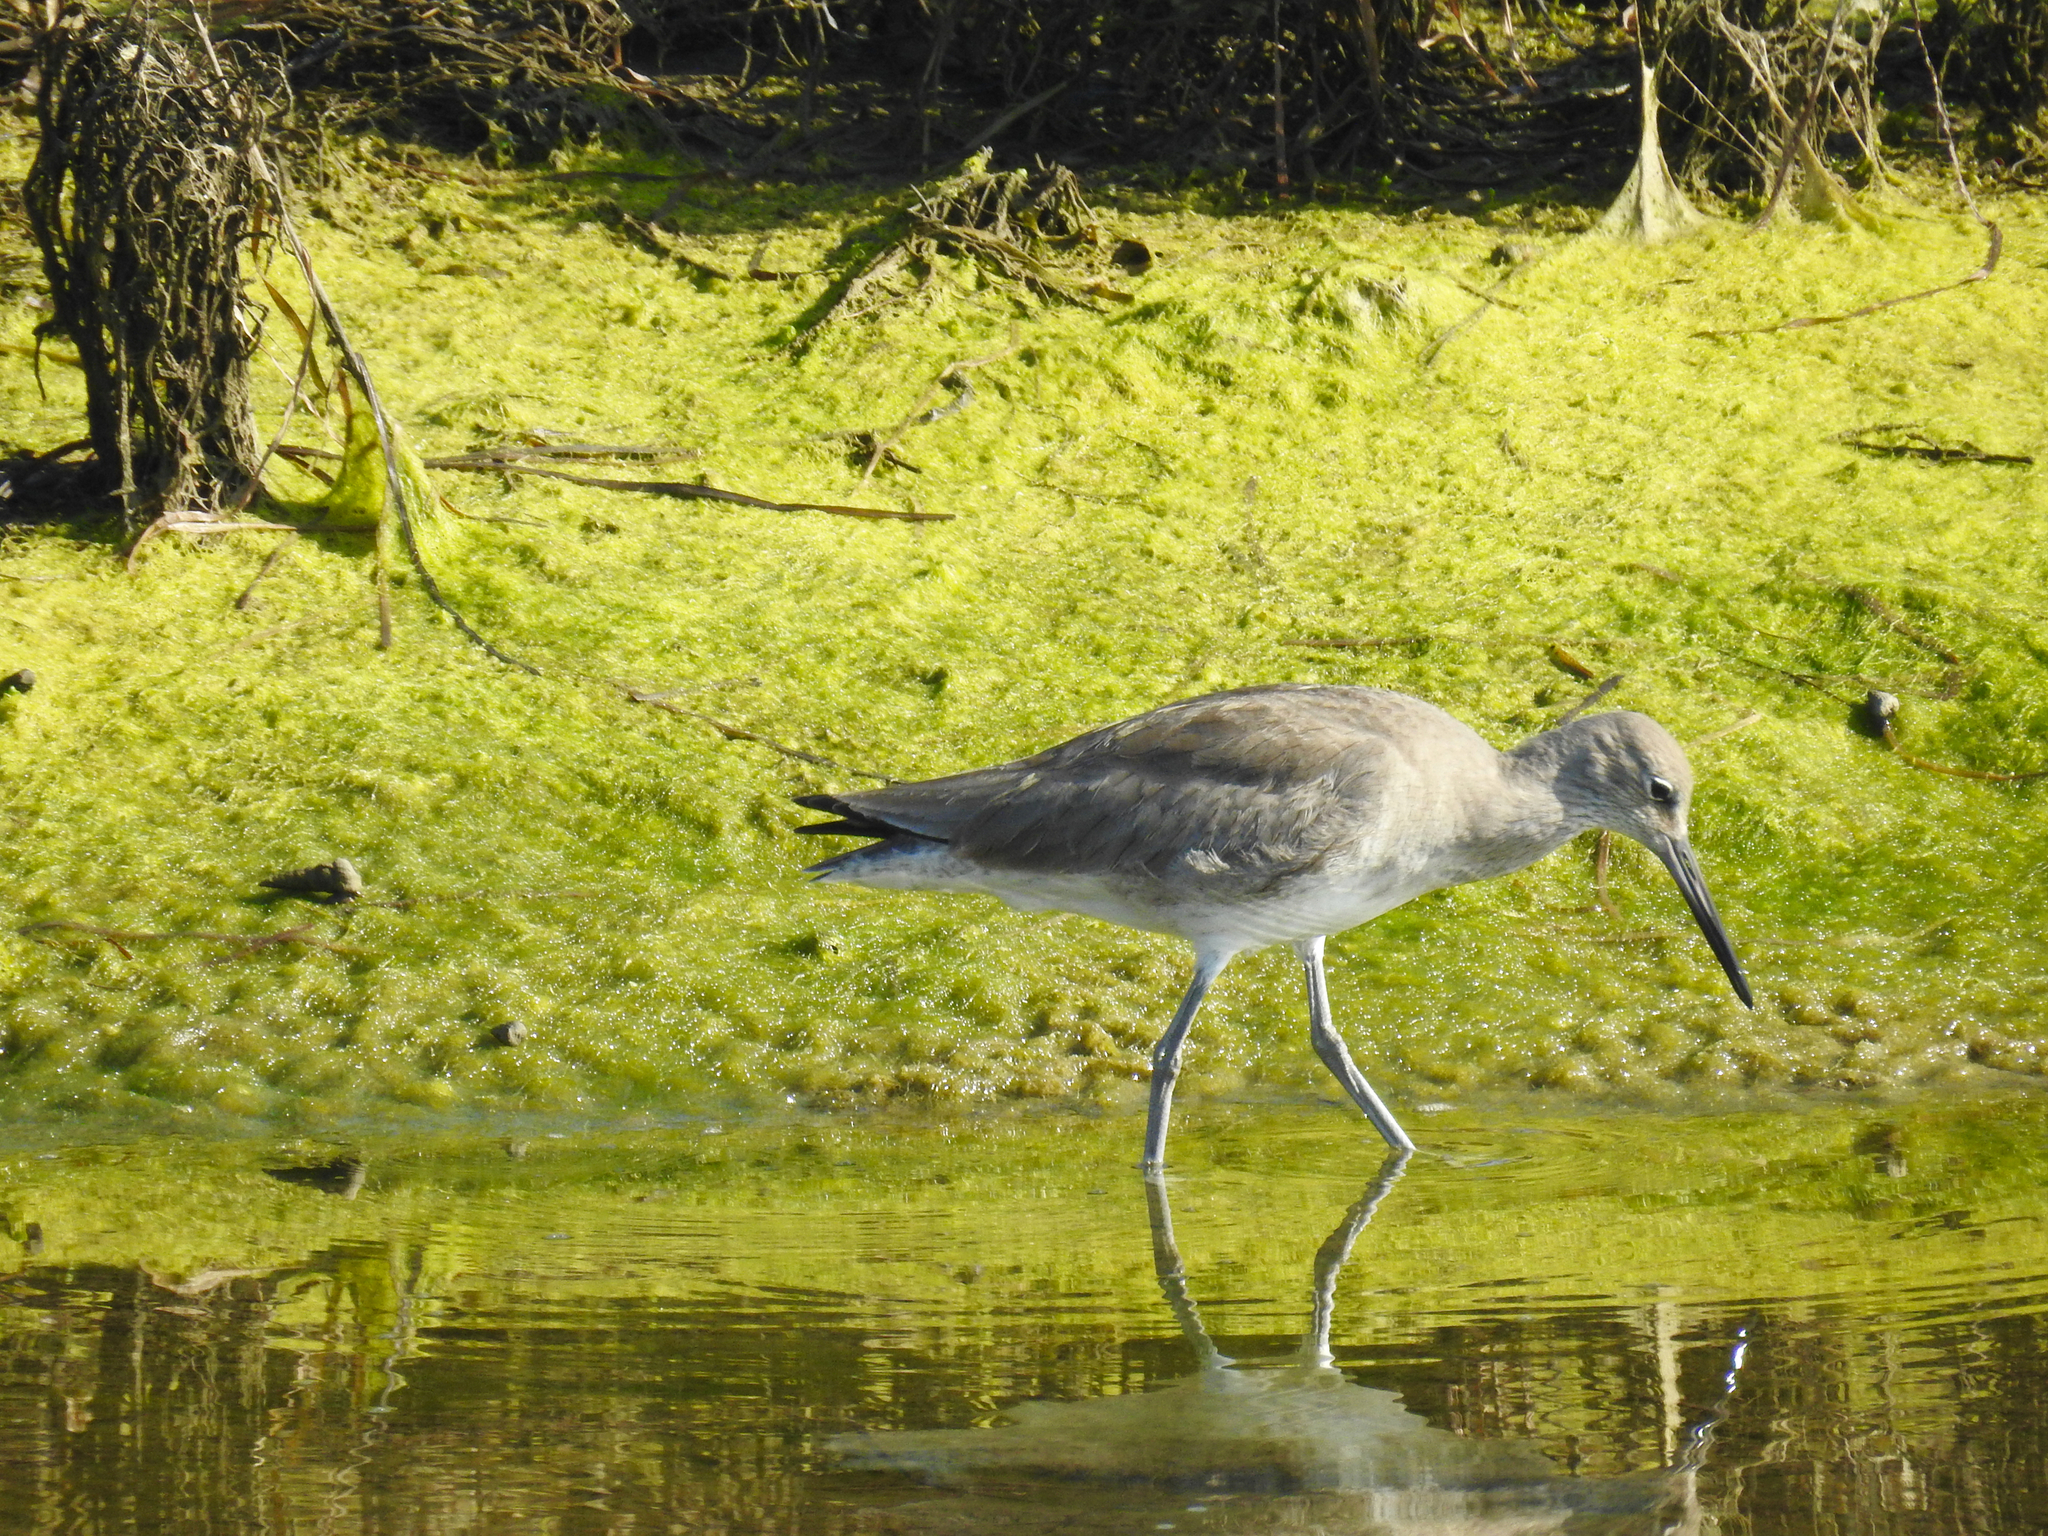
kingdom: Animalia
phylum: Chordata
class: Aves
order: Charadriiformes
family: Scolopacidae
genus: Tringa
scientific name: Tringa semipalmata
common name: Willet
